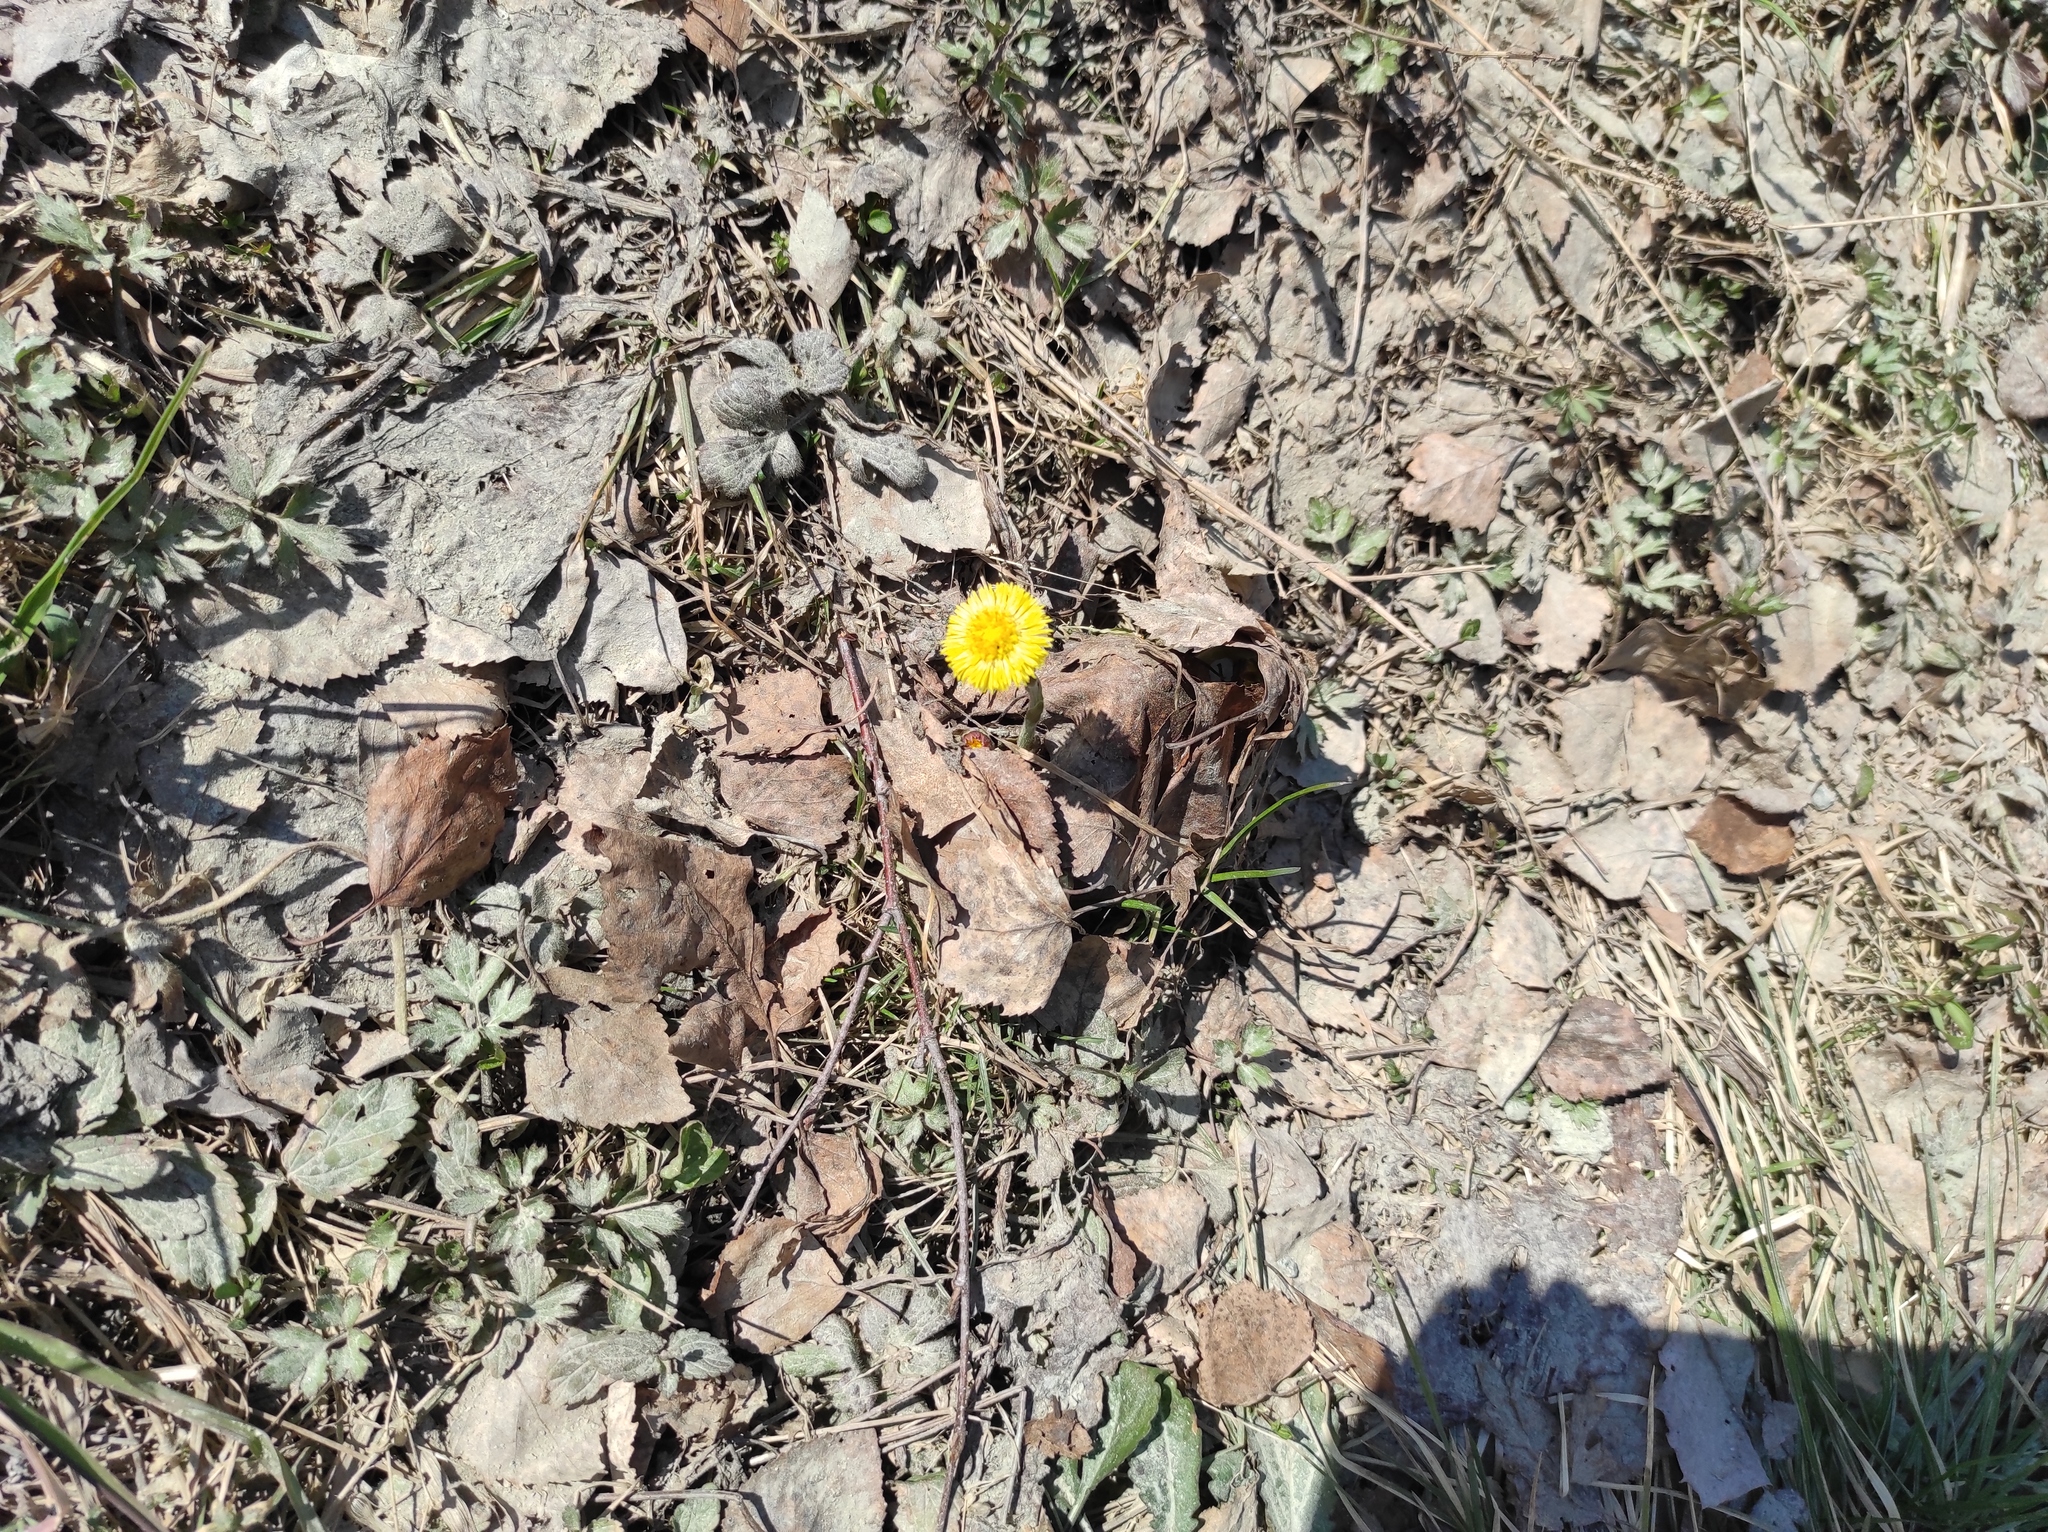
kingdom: Plantae
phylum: Tracheophyta
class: Magnoliopsida
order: Asterales
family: Asteraceae
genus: Tussilago
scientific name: Tussilago farfara
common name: Coltsfoot
